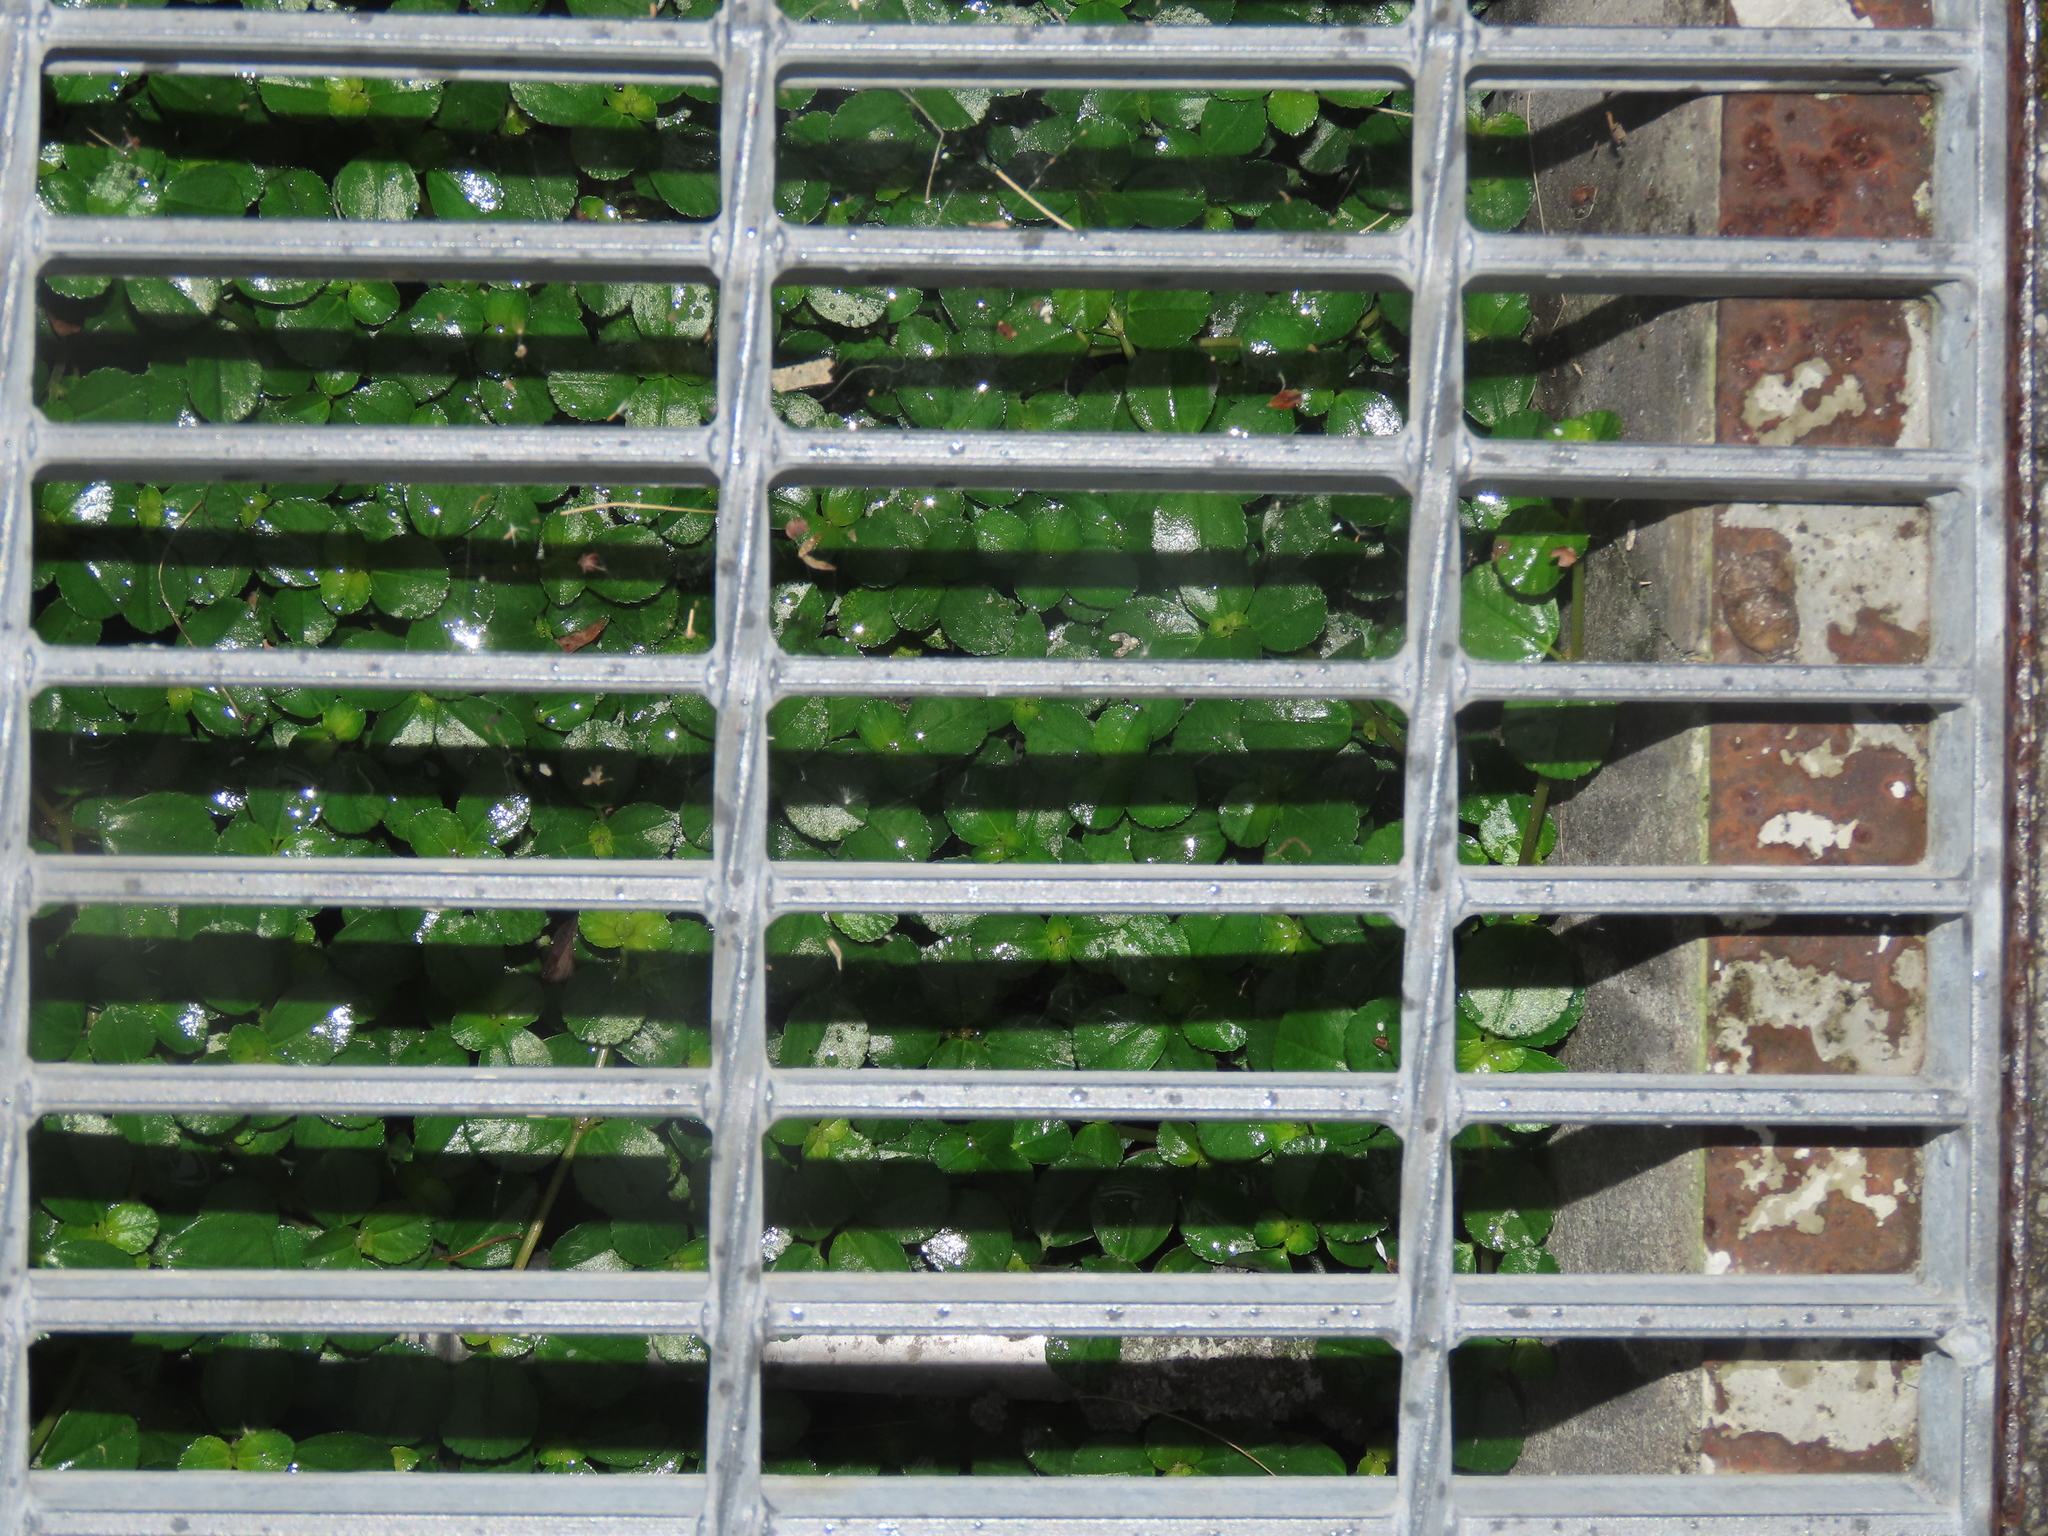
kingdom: Plantae
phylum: Tracheophyta
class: Magnoliopsida
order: Rosales
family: Urticaceae
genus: Pilea
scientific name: Pilea depressa
